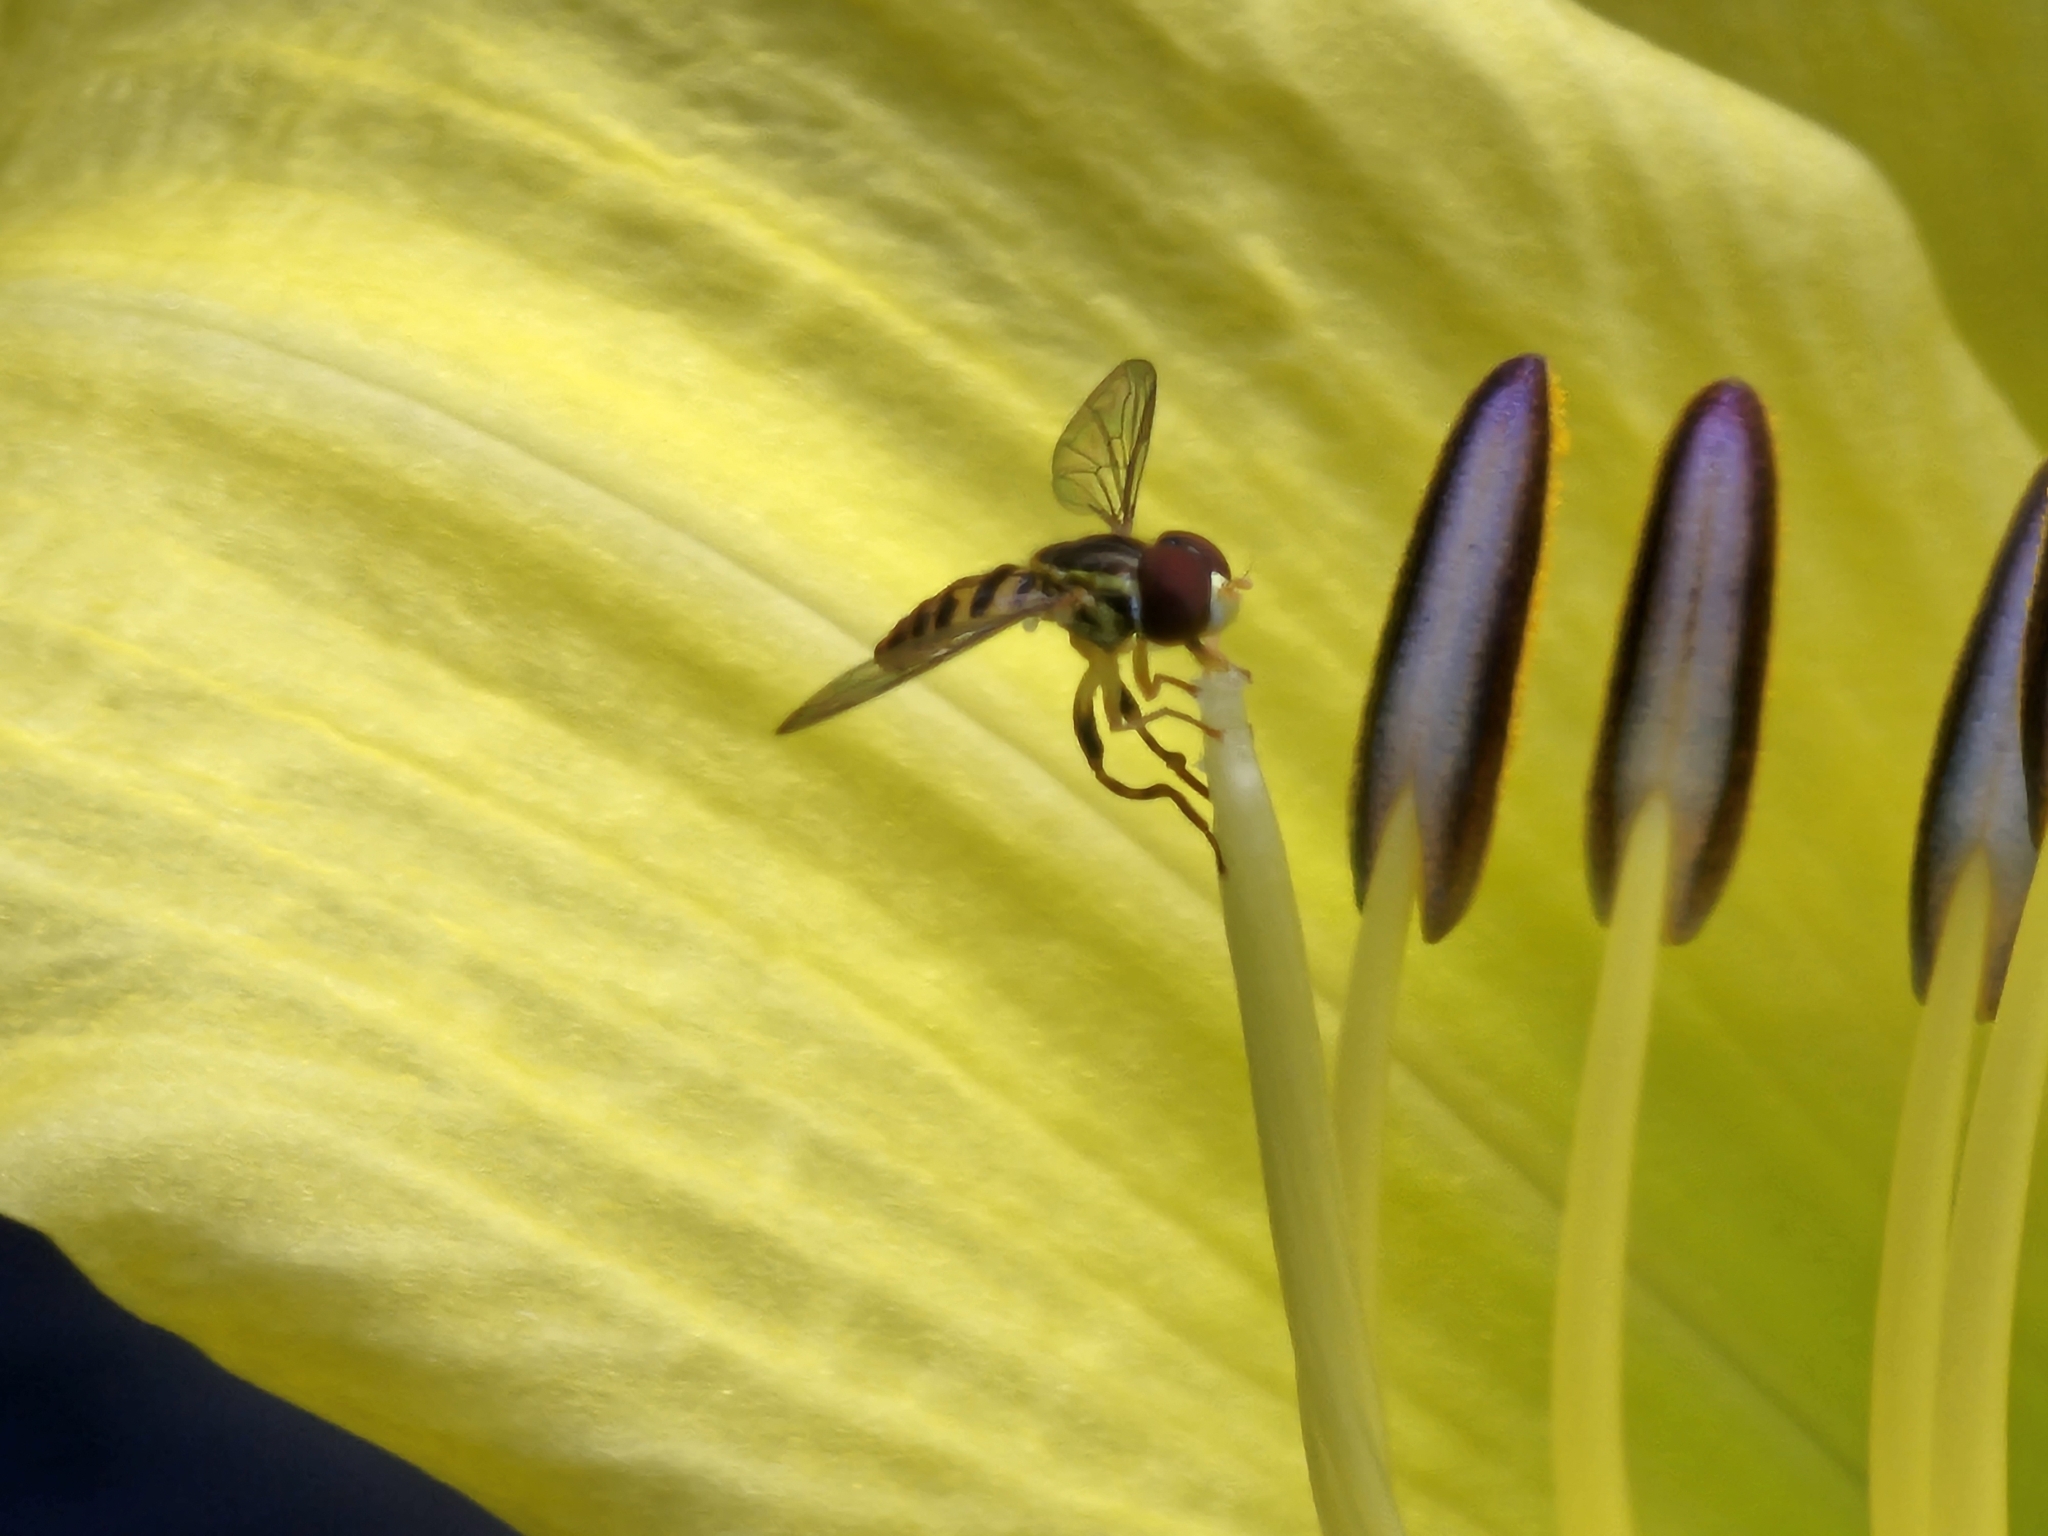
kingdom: Animalia
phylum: Arthropoda
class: Insecta
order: Diptera
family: Syrphidae
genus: Toxomerus
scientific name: Toxomerus geminatus
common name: Eastern calligrapher
